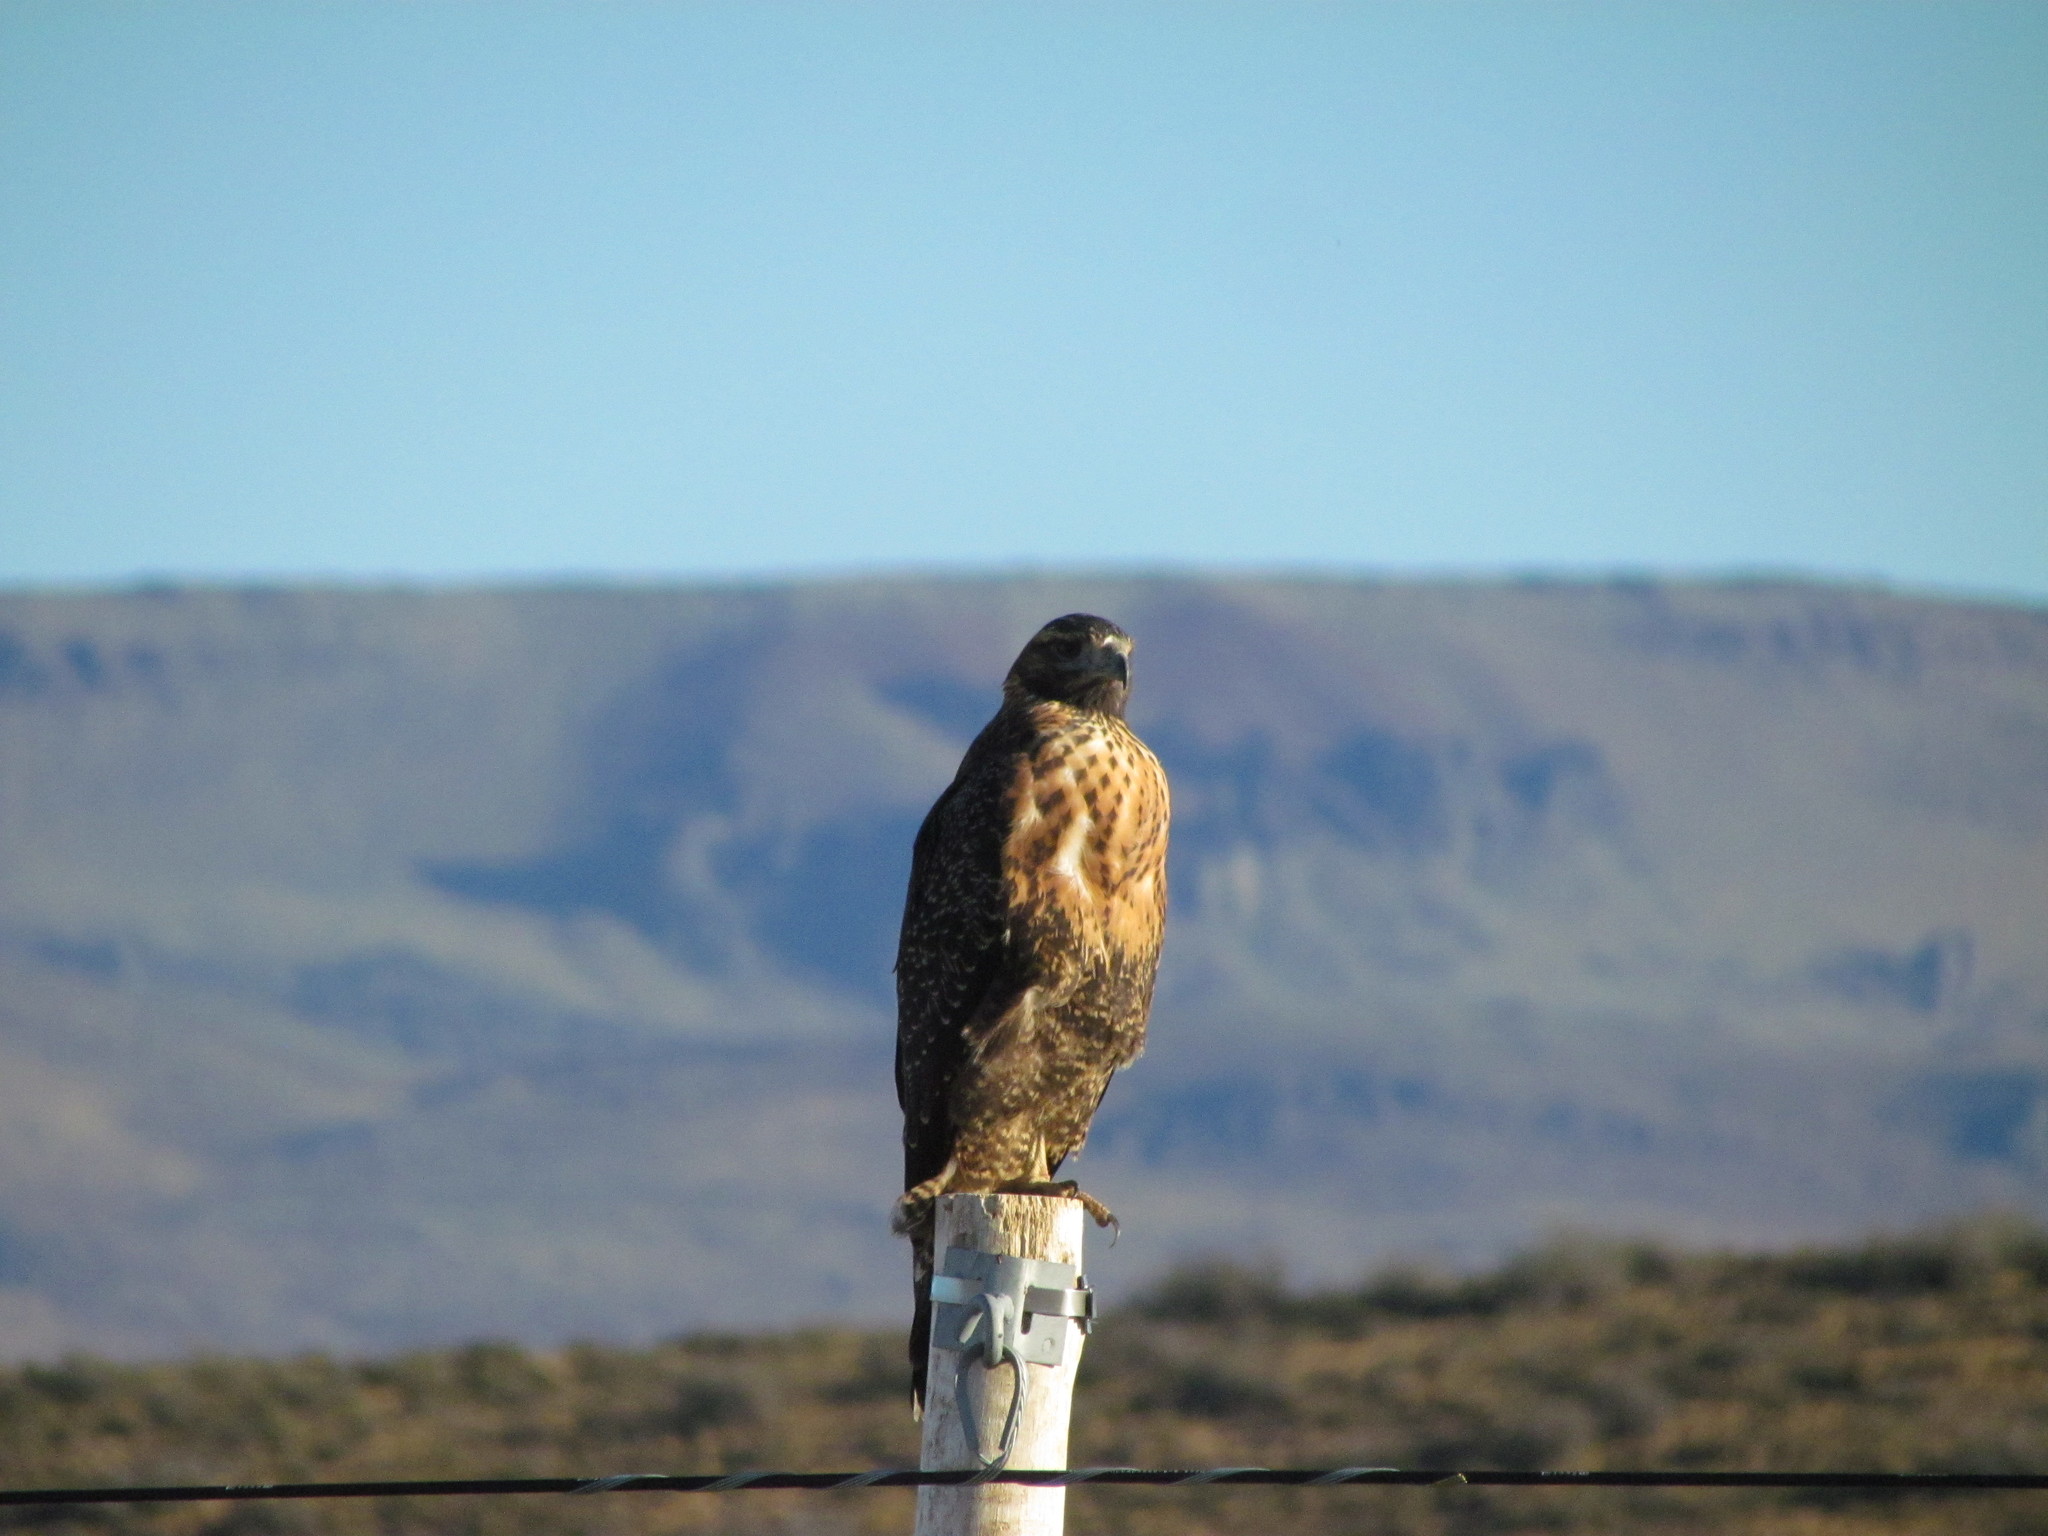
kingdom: Animalia
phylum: Chordata
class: Aves
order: Accipitriformes
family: Accipitridae
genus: Buteo
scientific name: Buteo polyosoma
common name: Variable hawk
